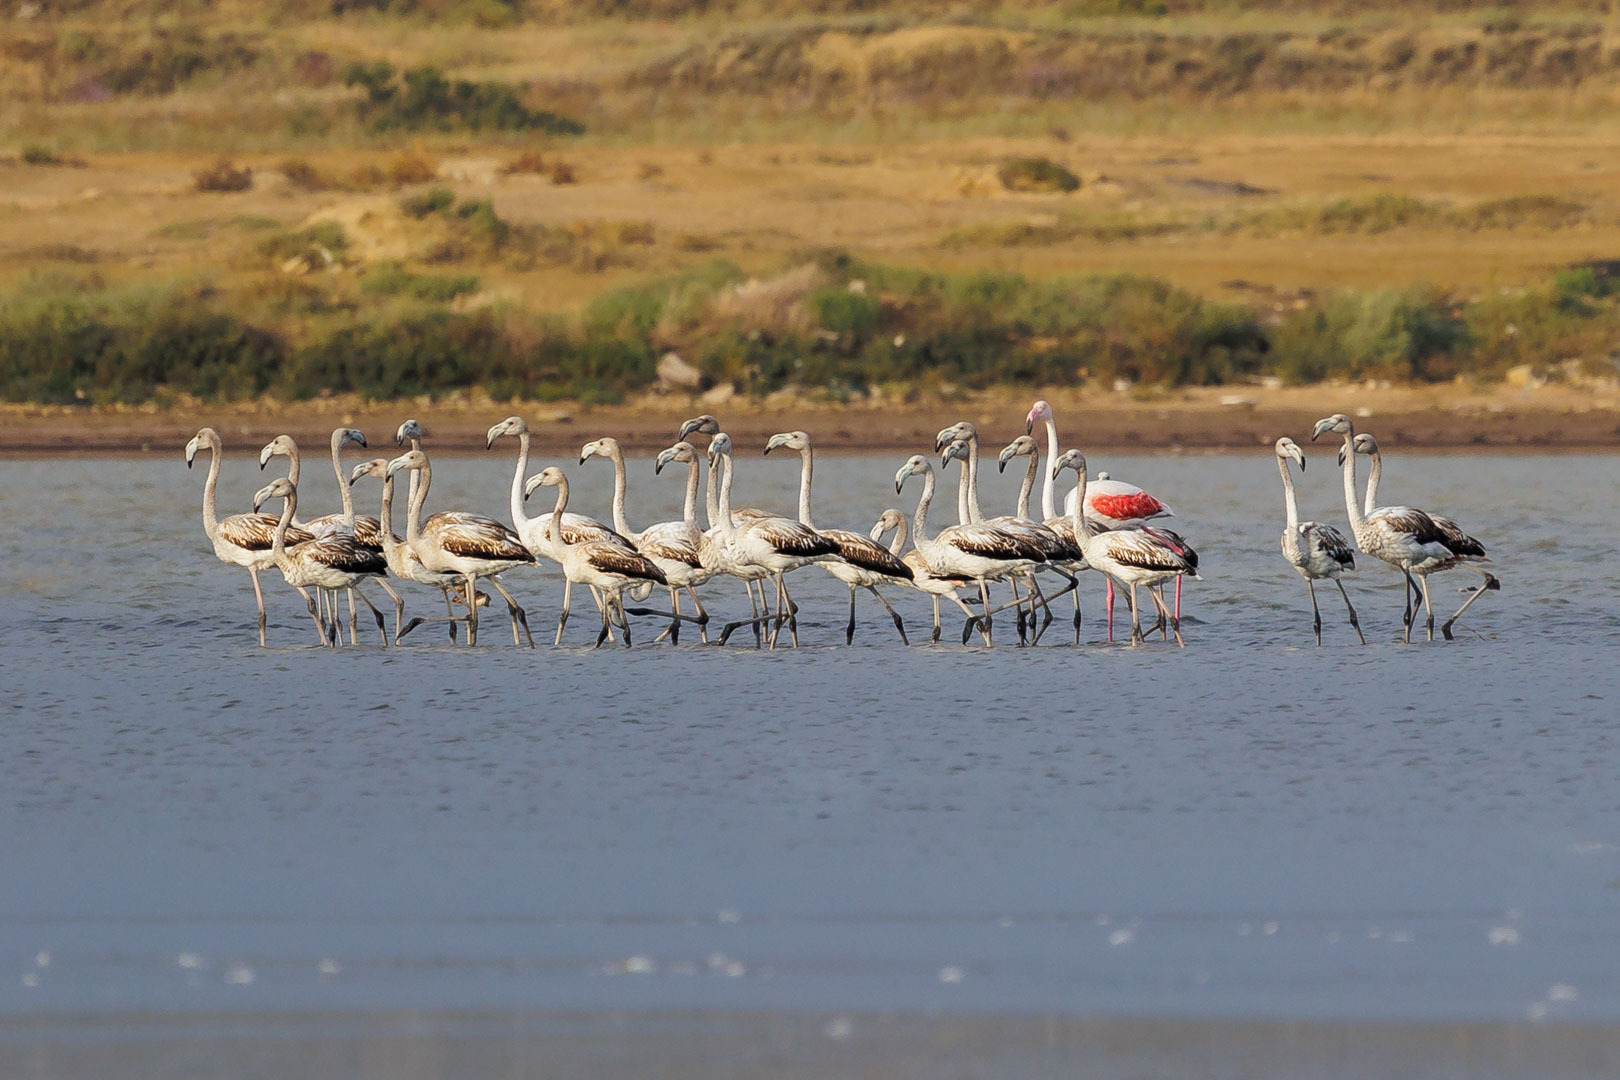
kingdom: Animalia
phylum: Chordata
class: Aves
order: Phoenicopteriformes
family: Phoenicopteridae
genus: Phoenicopterus
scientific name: Phoenicopterus roseus
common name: Greater flamingo
